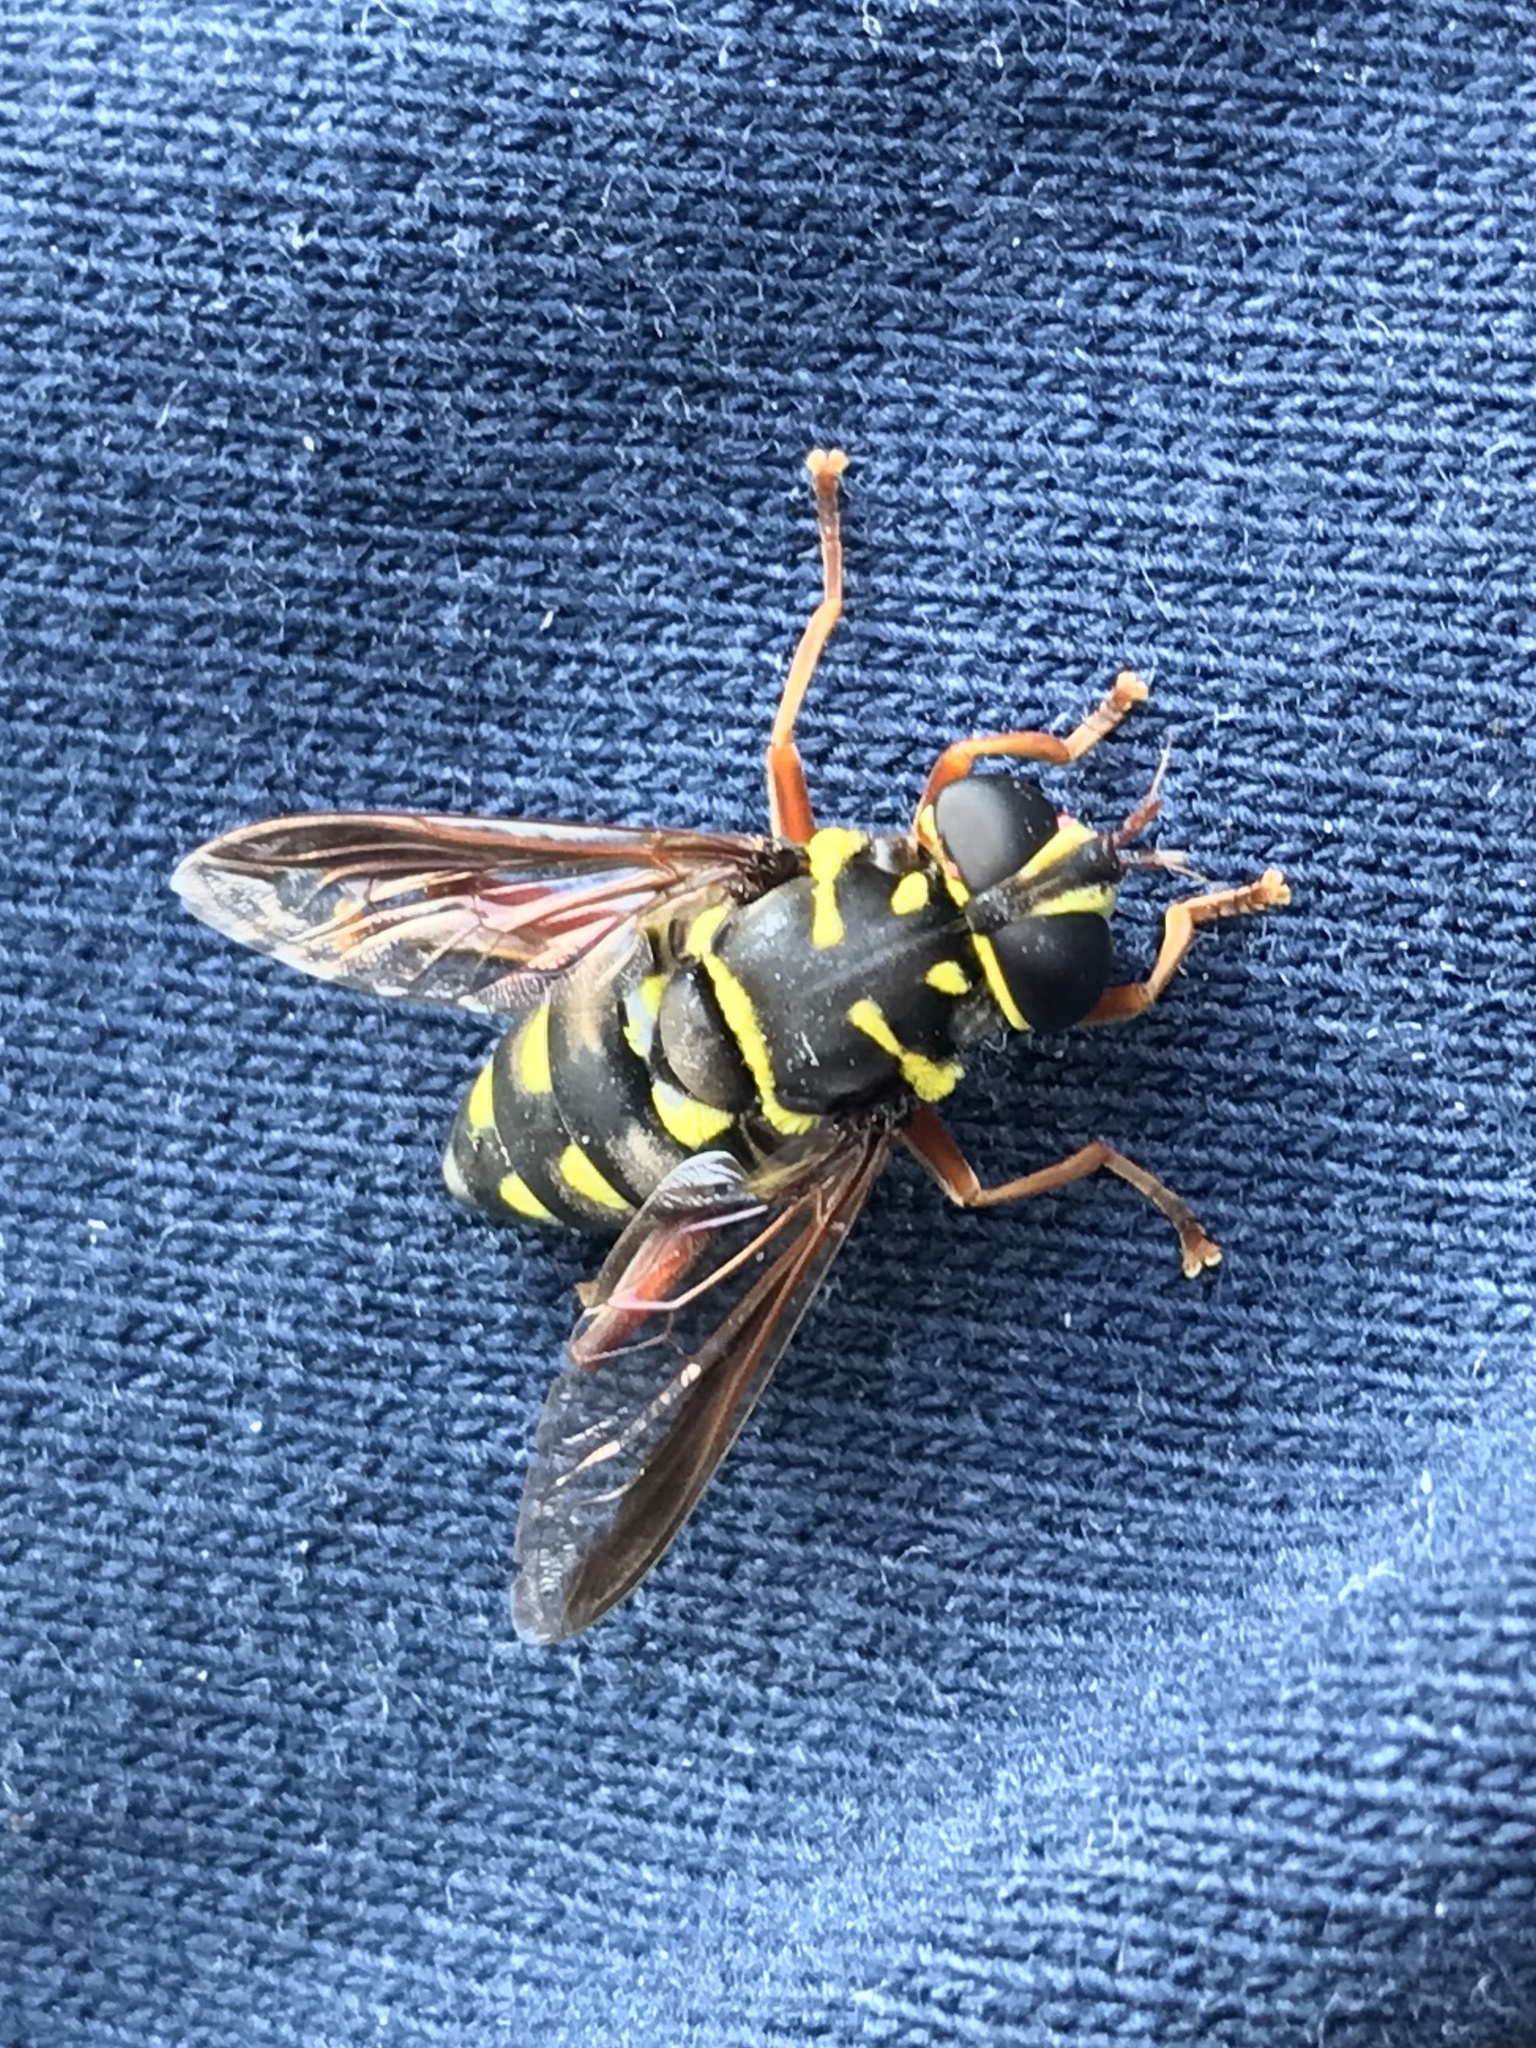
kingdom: Animalia
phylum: Arthropoda
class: Insecta
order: Diptera
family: Syrphidae
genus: Meromacrus
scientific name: Meromacrus currani
